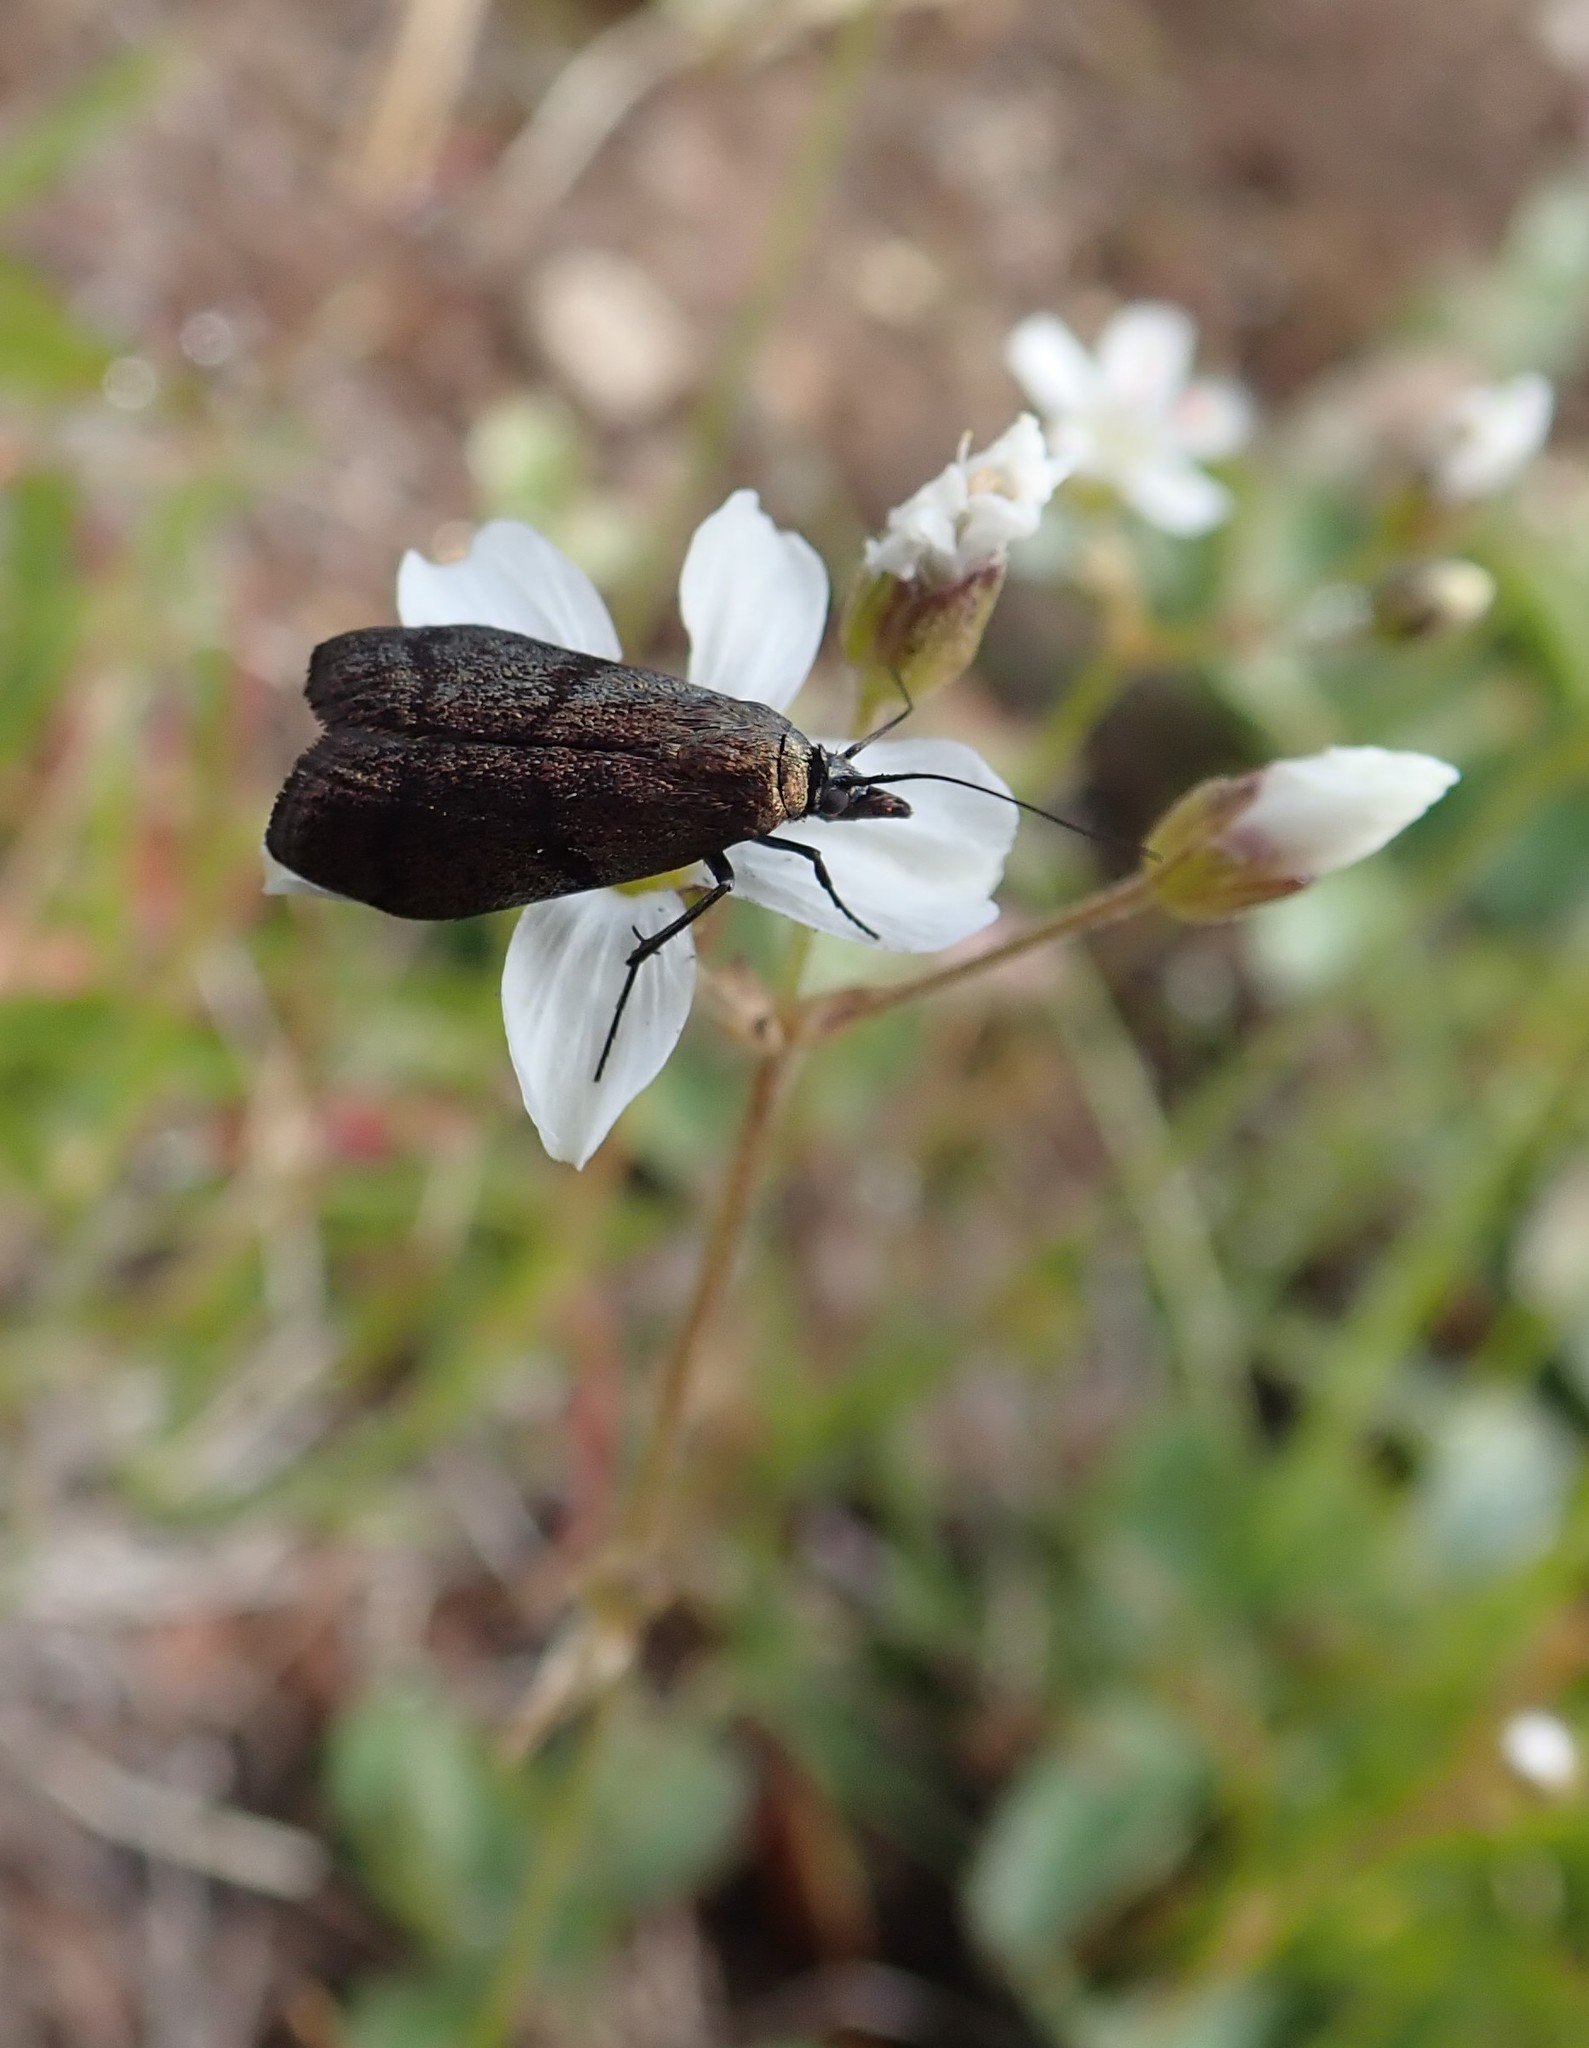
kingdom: Animalia
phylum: Arthropoda
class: Insecta
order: Lepidoptera
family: Pyralidae
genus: Pyla
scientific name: Pyla scintillans
